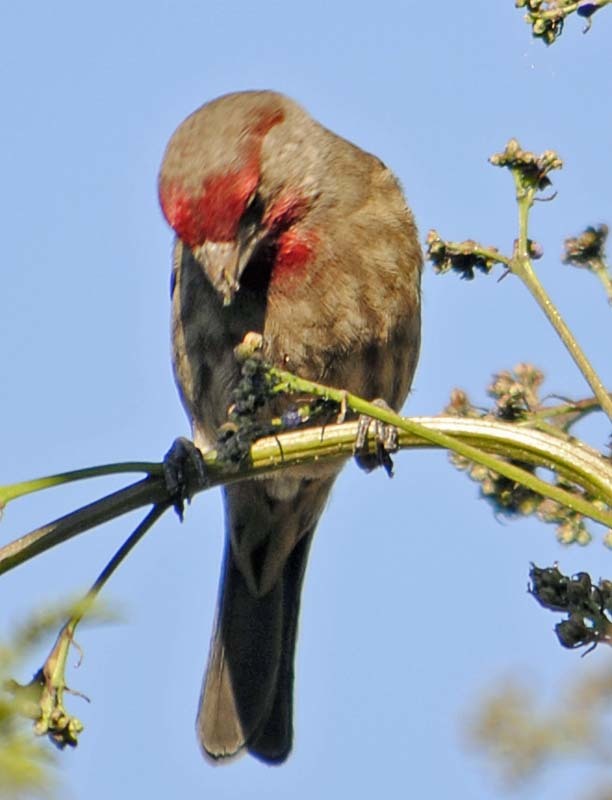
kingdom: Animalia
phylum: Chordata
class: Aves
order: Passeriformes
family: Fringillidae
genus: Haemorhous
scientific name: Haemorhous mexicanus
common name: House finch
